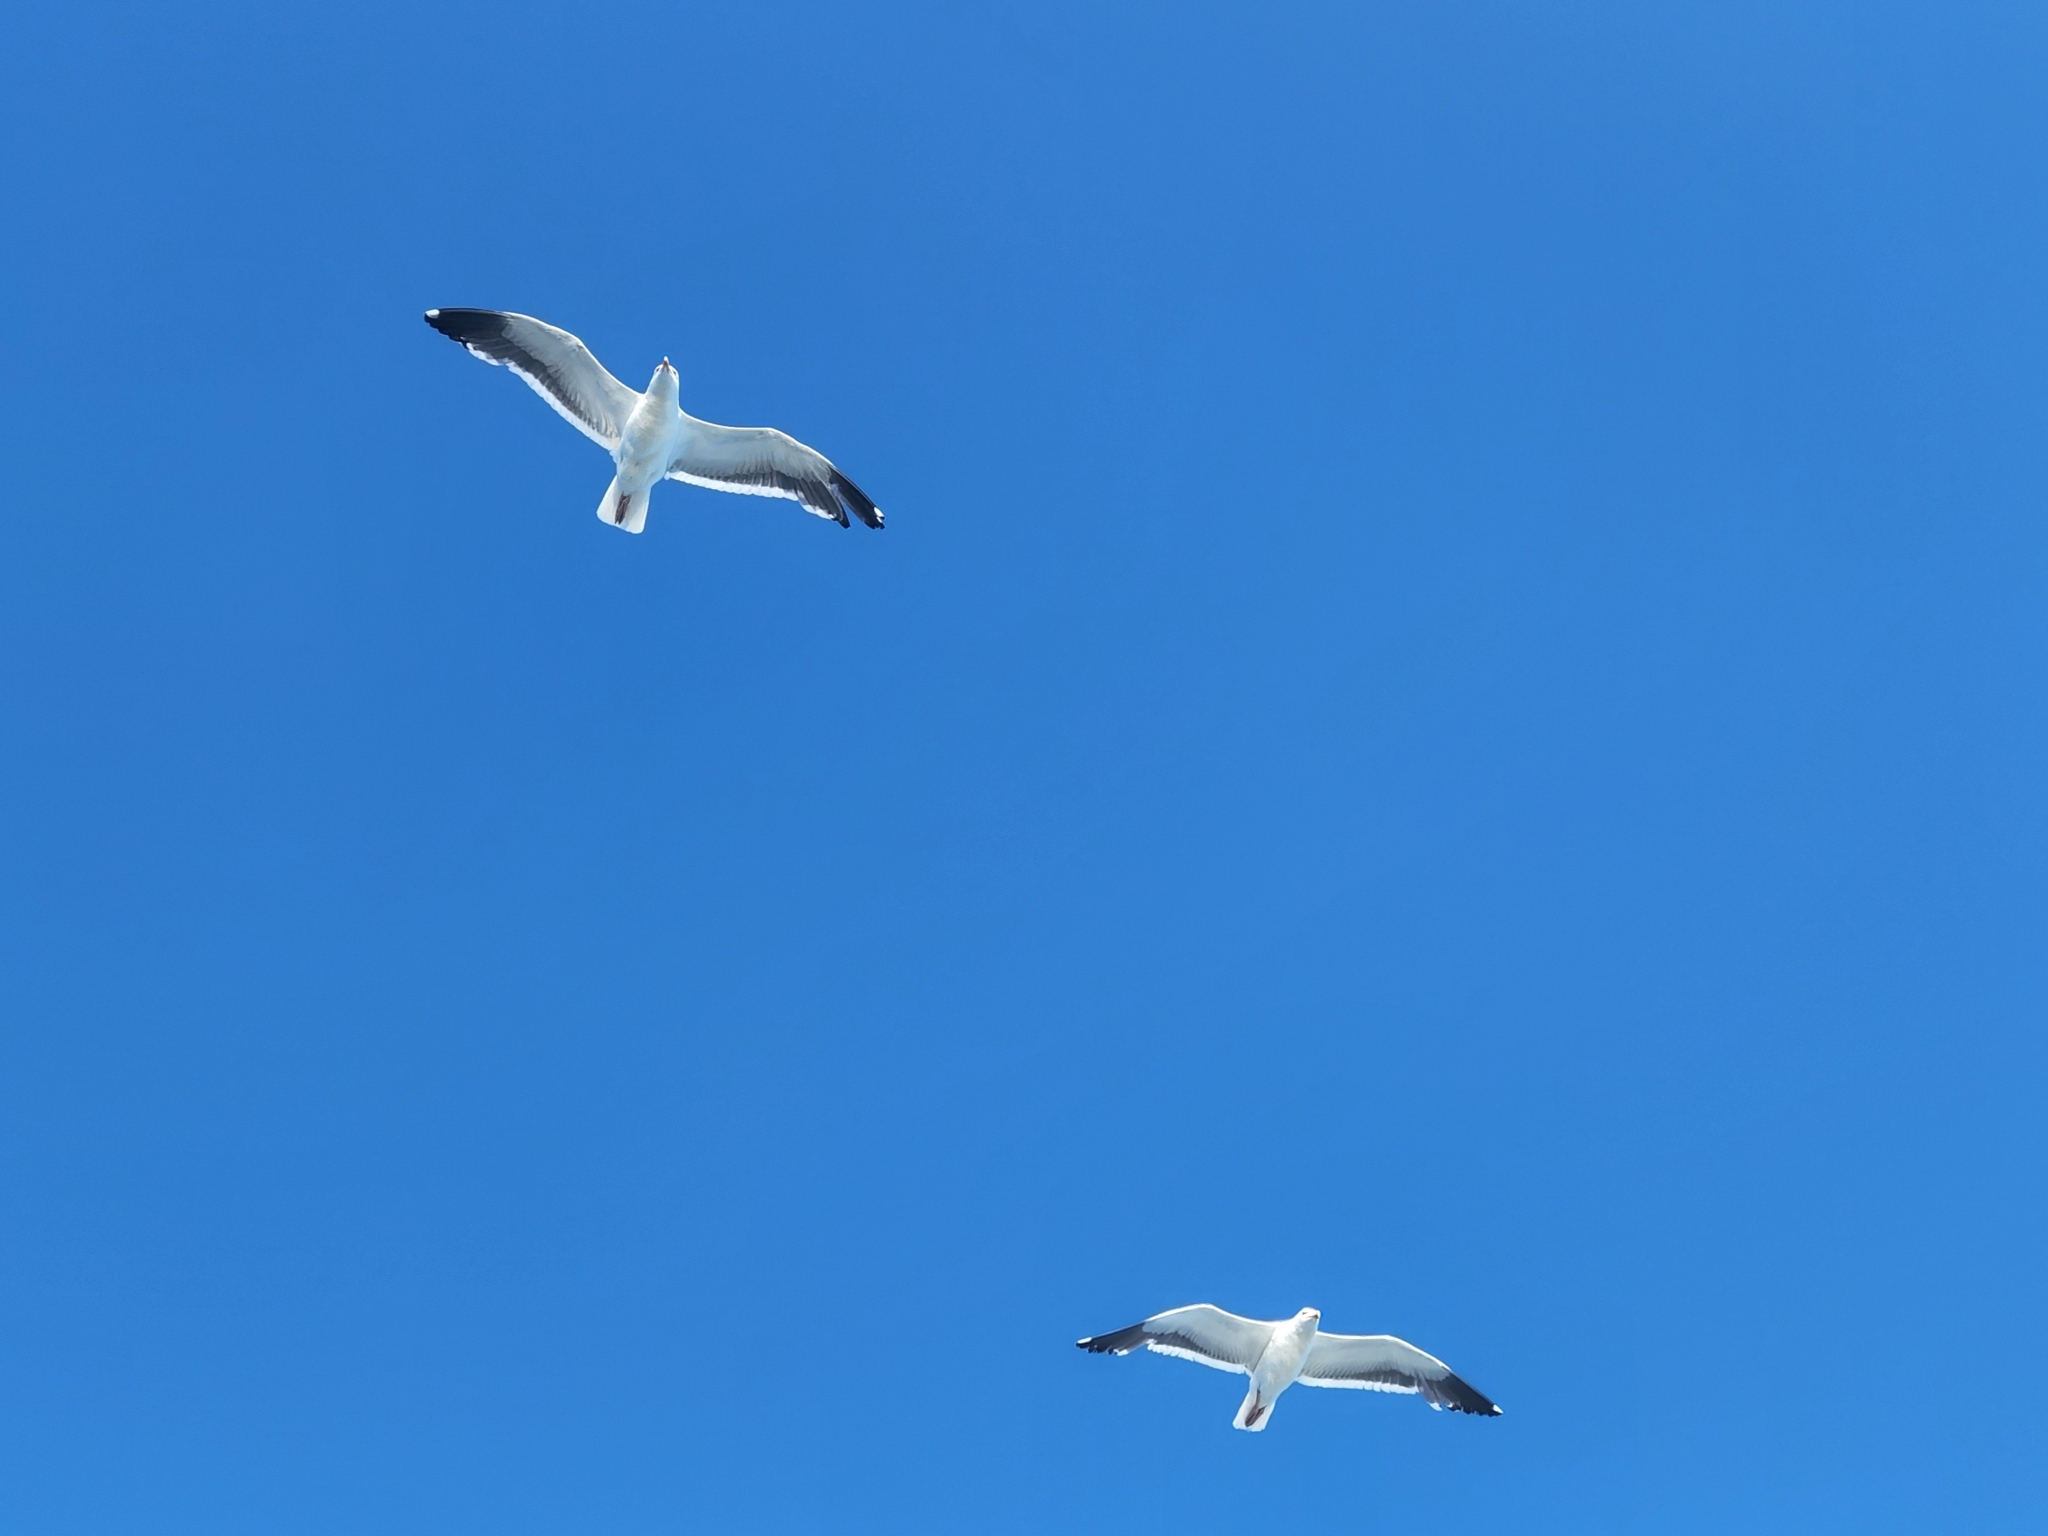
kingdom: Animalia
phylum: Chordata
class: Aves
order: Charadriiformes
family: Laridae
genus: Larus
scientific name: Larus occidentalis
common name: Western gull
